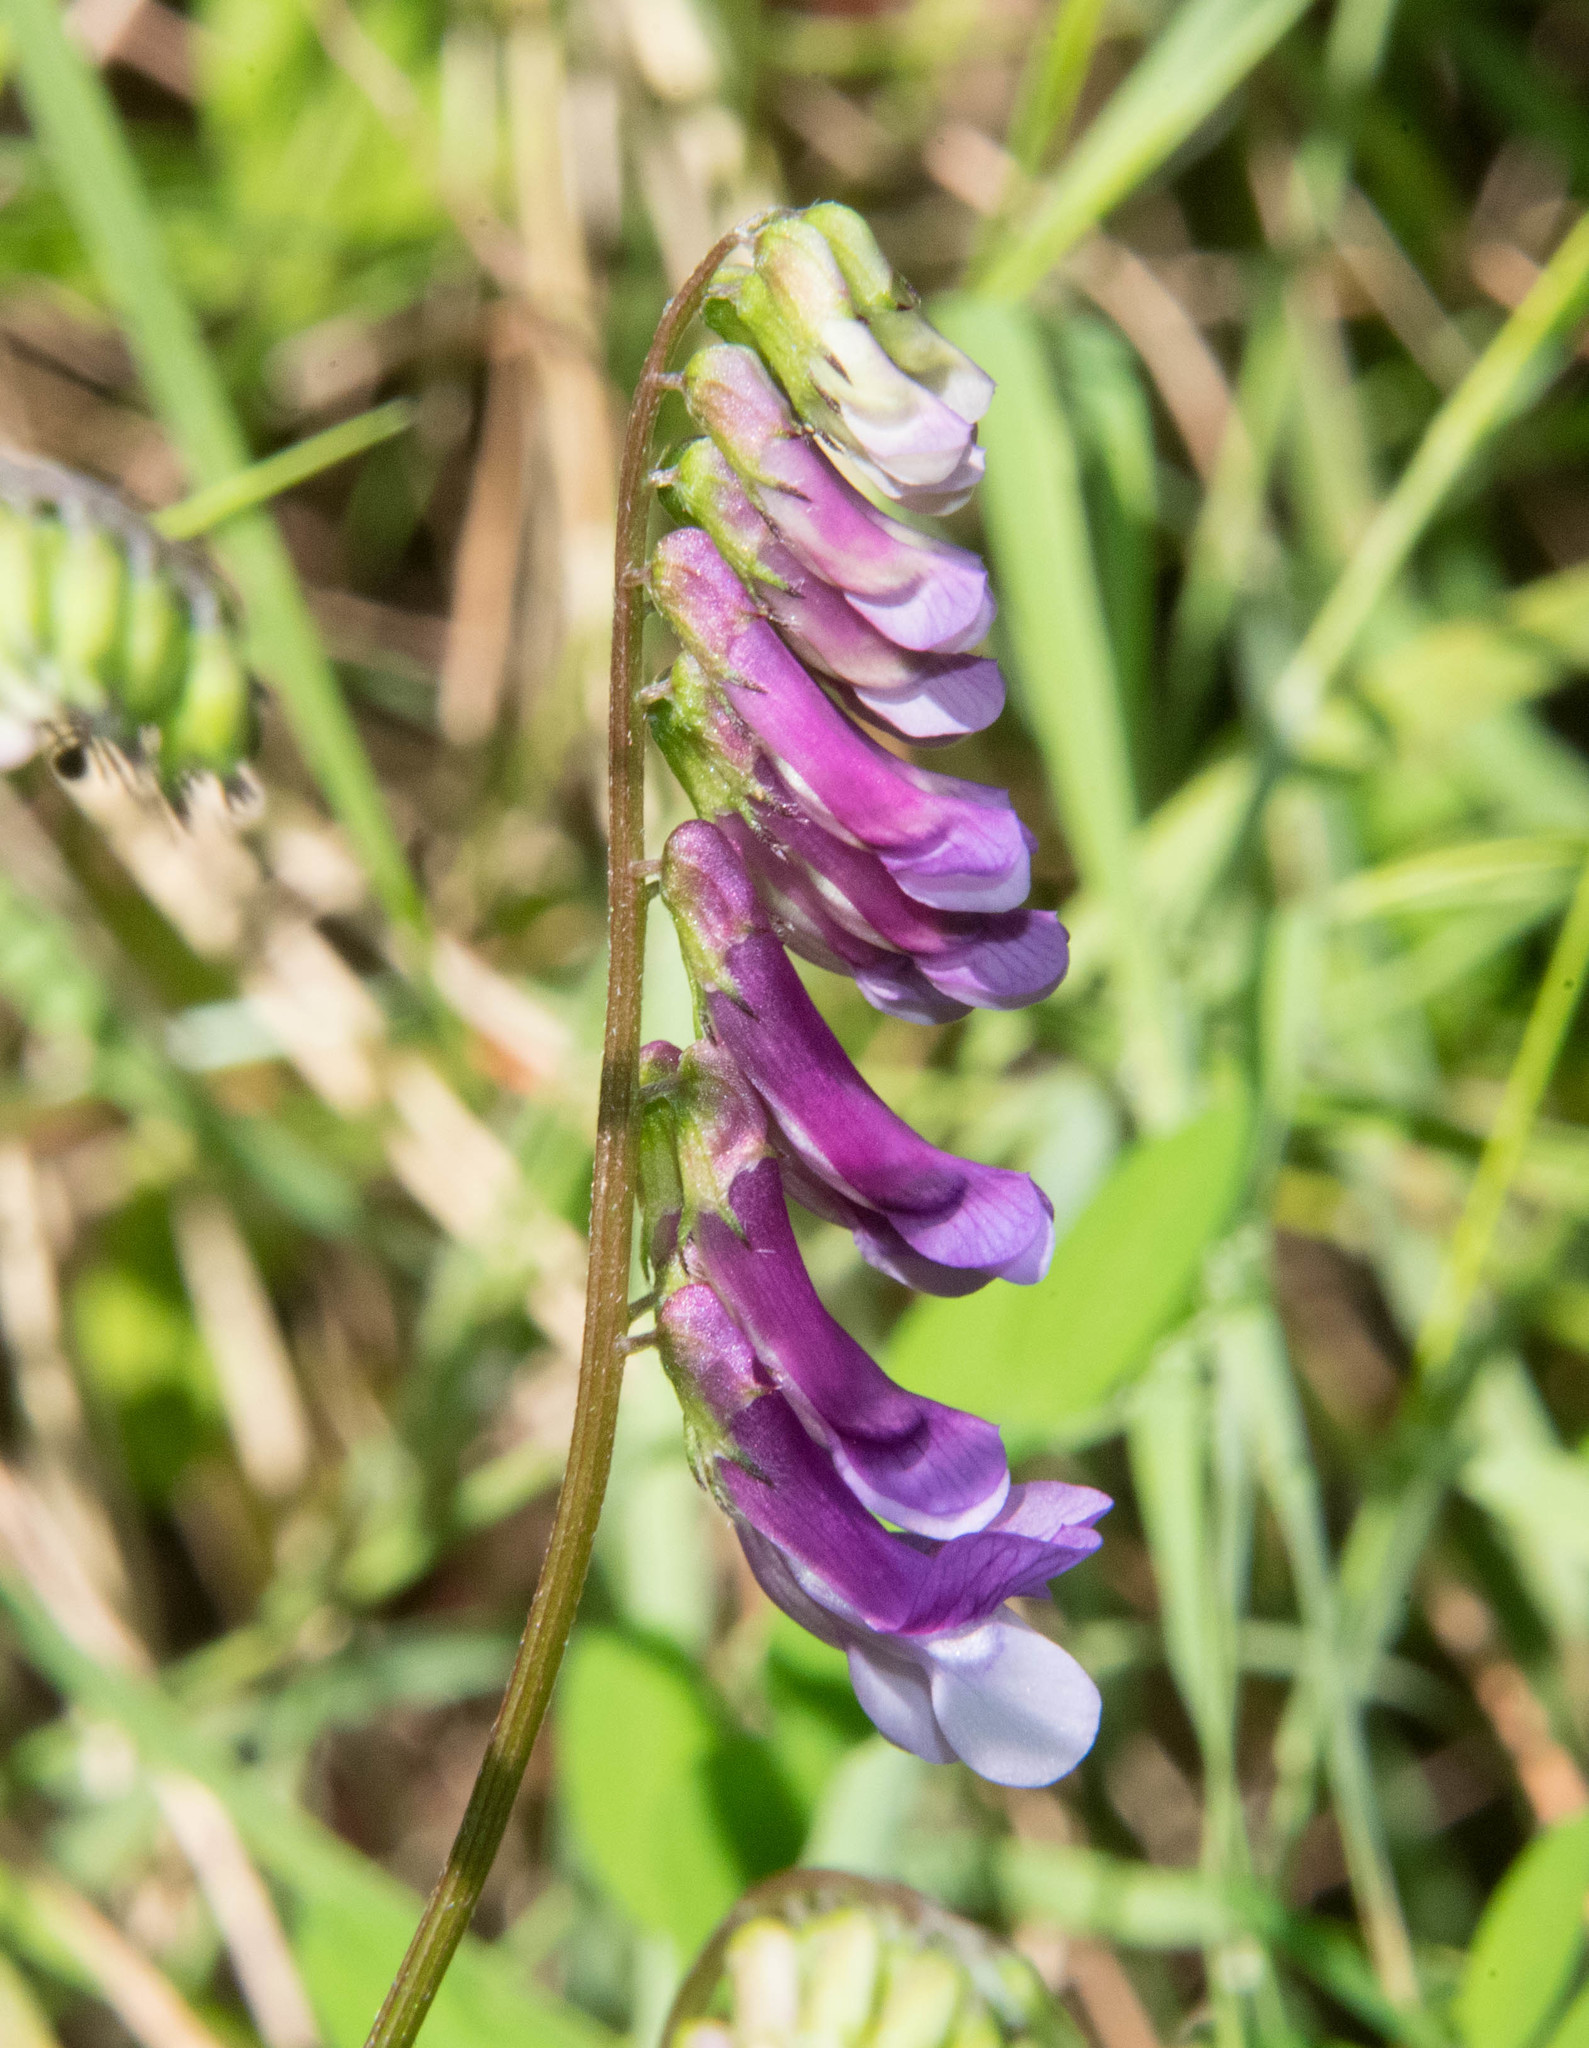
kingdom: Plantae
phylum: Tracheophyta
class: Magnoliopsida
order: Fabales
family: Fabaceae
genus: Vicia
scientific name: Vicia villosa
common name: Fodder vetch
